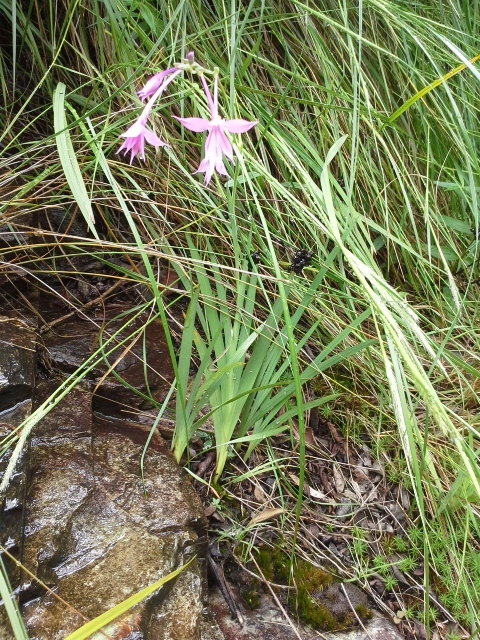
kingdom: Plantae
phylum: Tracheophyta
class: Liliopsida
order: Asparagales
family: Iridaceae
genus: Radinosiphon
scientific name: Radinosiphon lomatensis
